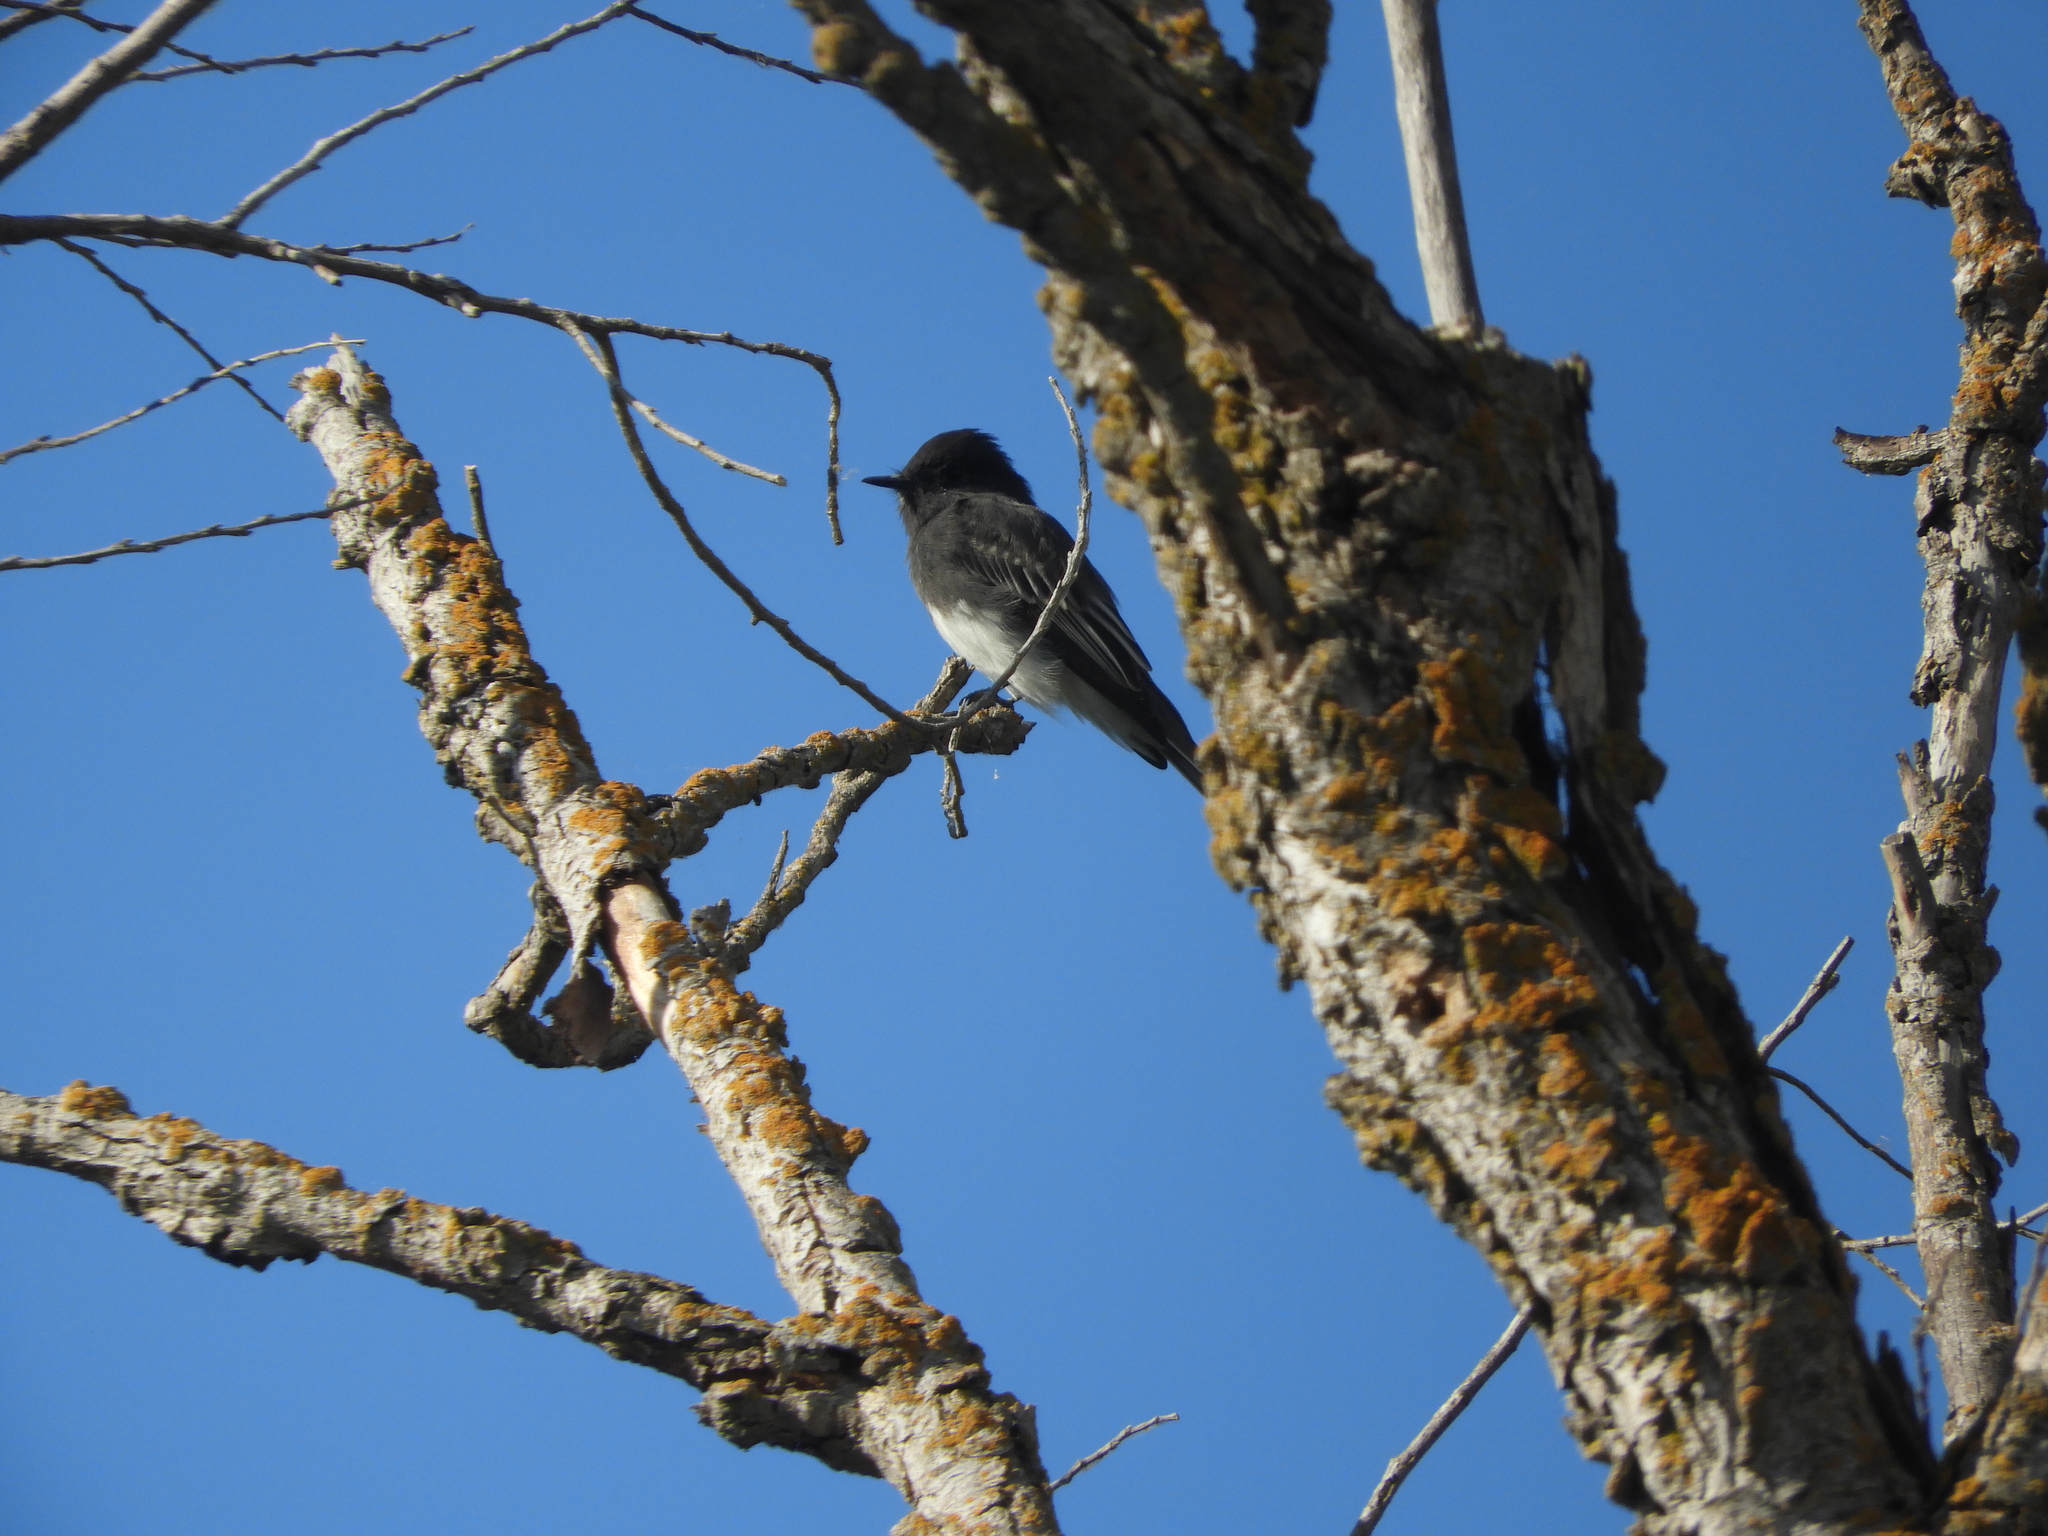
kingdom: Animalia
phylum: Chordata
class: Aves
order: Passeriformes
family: Tyrannidae
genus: Sayornis
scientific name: Sayornis nigricans
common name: Black phoebe
